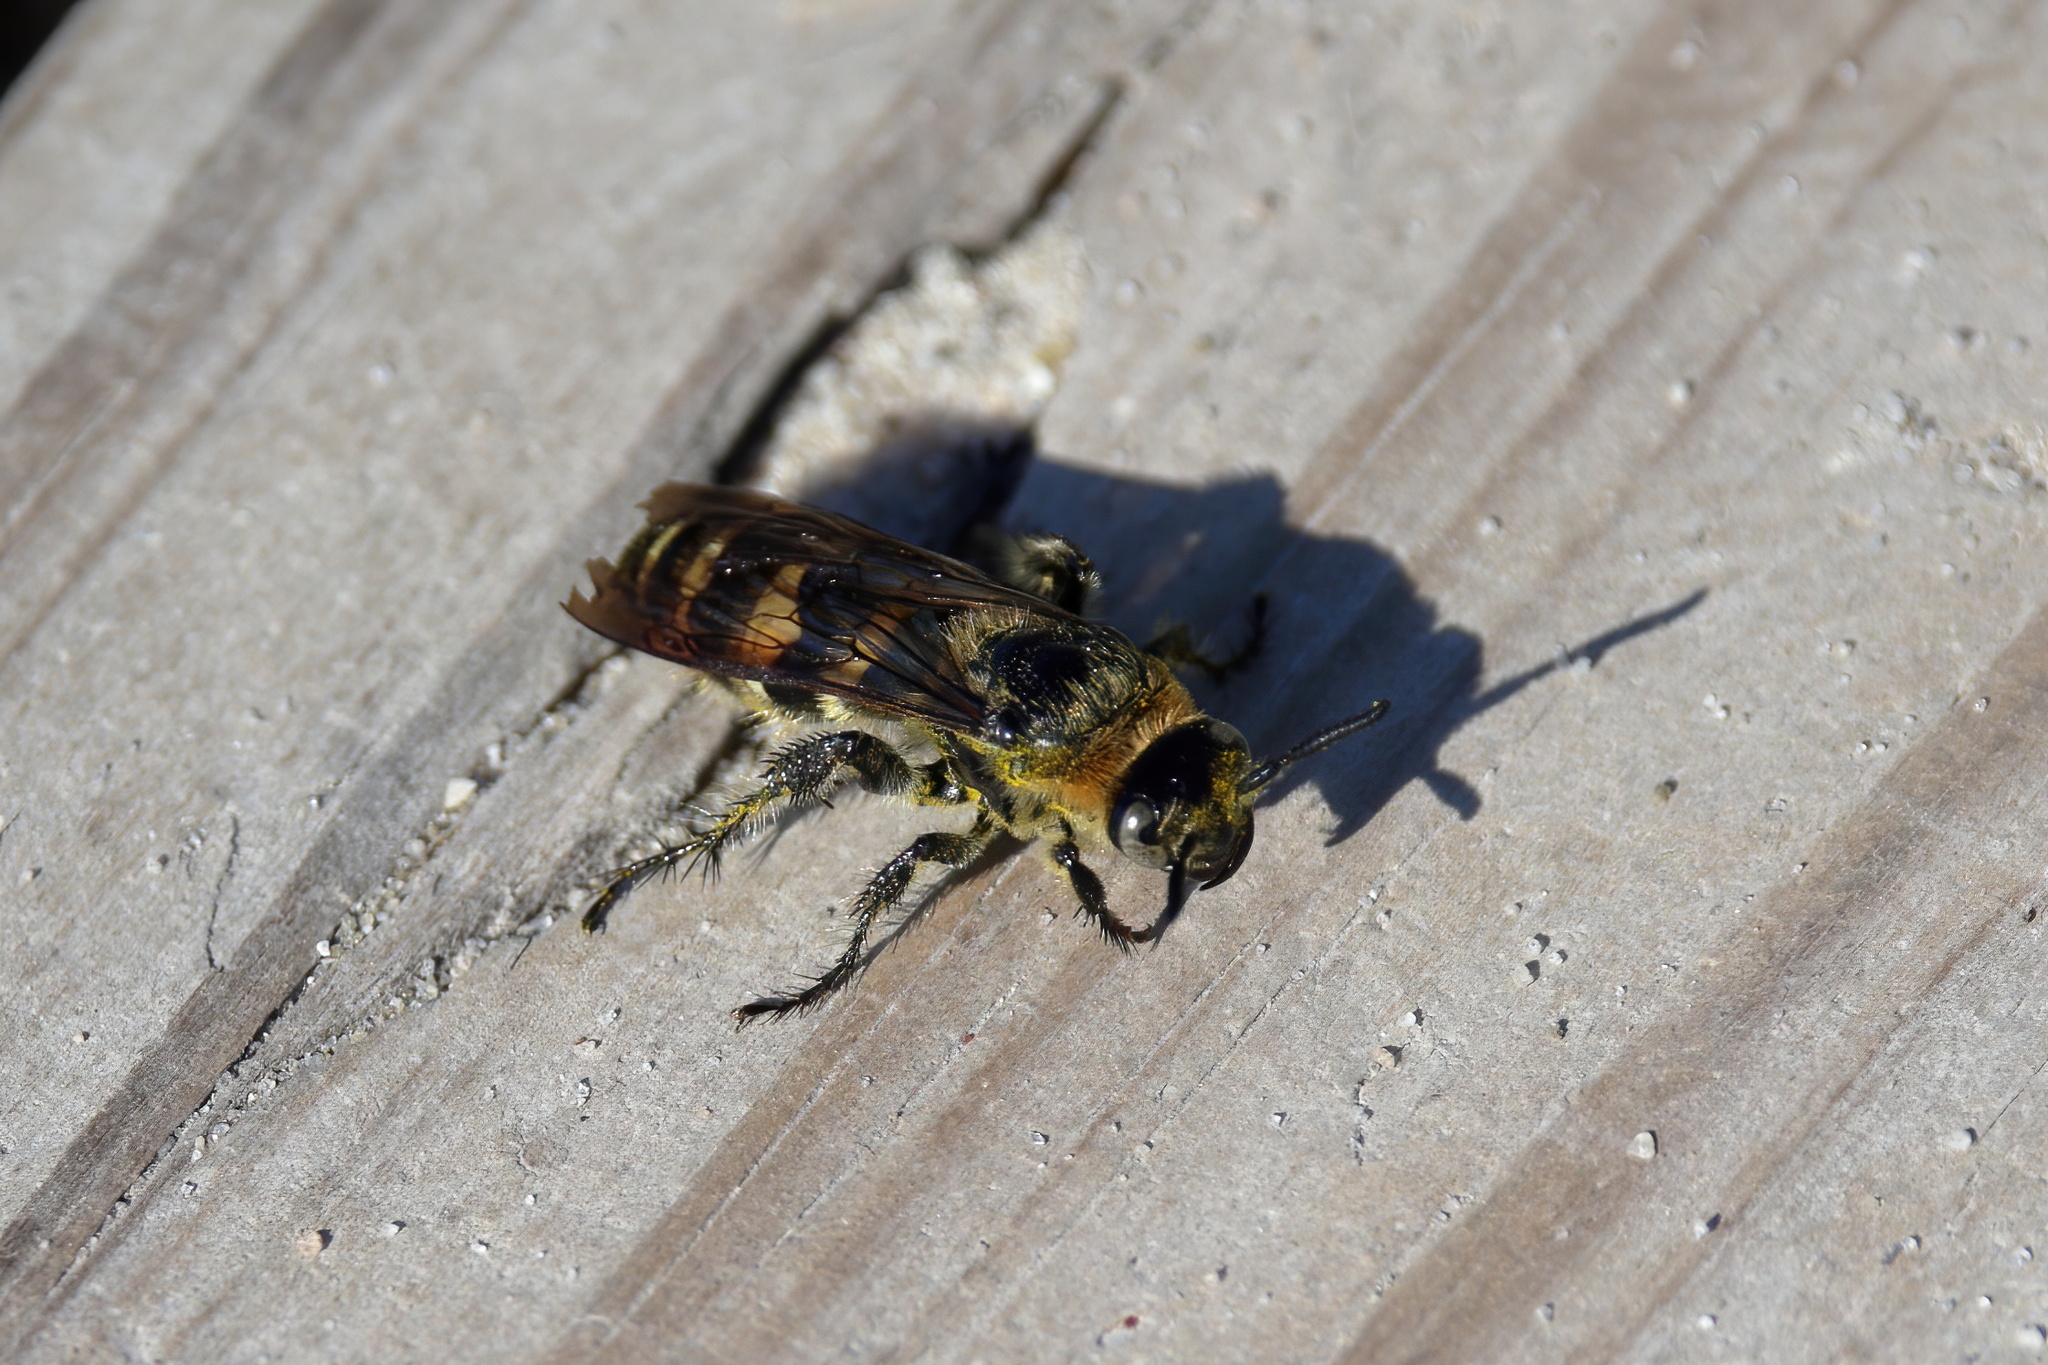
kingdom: Animalia
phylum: Arthropoda
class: Insecta
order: Hymenoptera
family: Scoliidae
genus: Dielis
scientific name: Dielis
